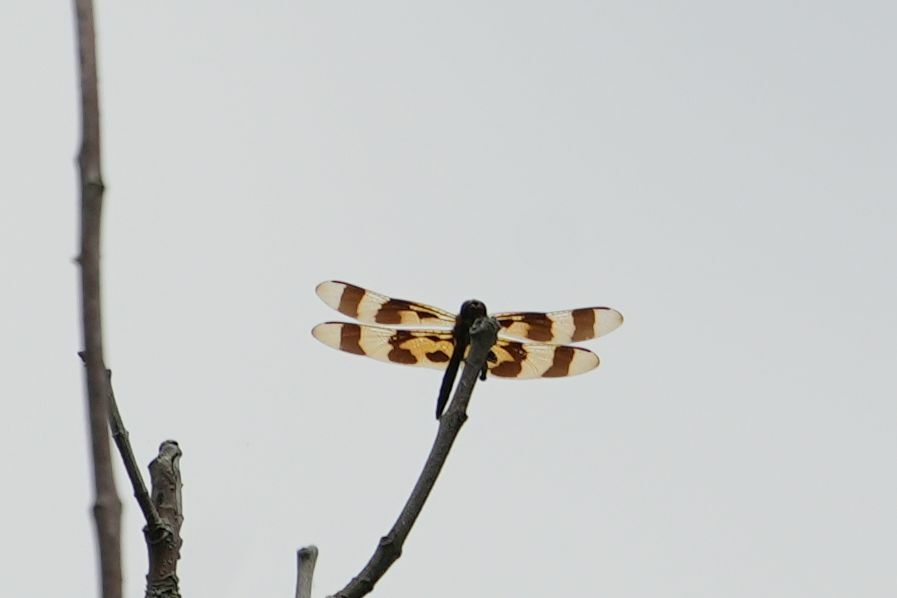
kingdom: Animalia
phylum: Arthropoda
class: Insecta
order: Odonata
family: Libellulidae
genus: Celithemis
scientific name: Celithemis eponina
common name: Halloween pennant
